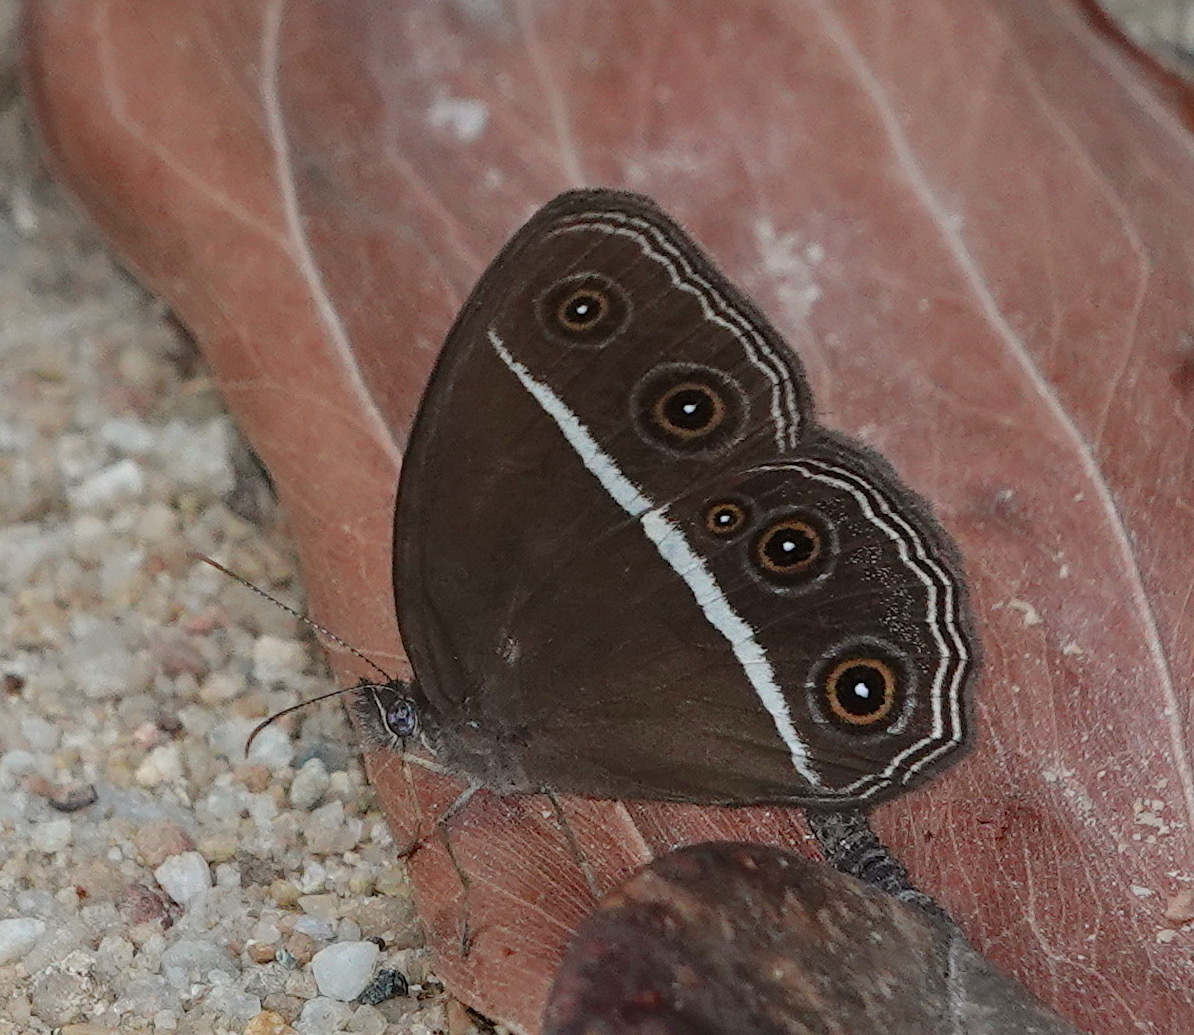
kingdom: Animalia
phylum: Arthropoda
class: Insecta
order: Lepidoptera
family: Nymphalidae
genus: Orsotriaena
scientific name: Orsotriaena medus
